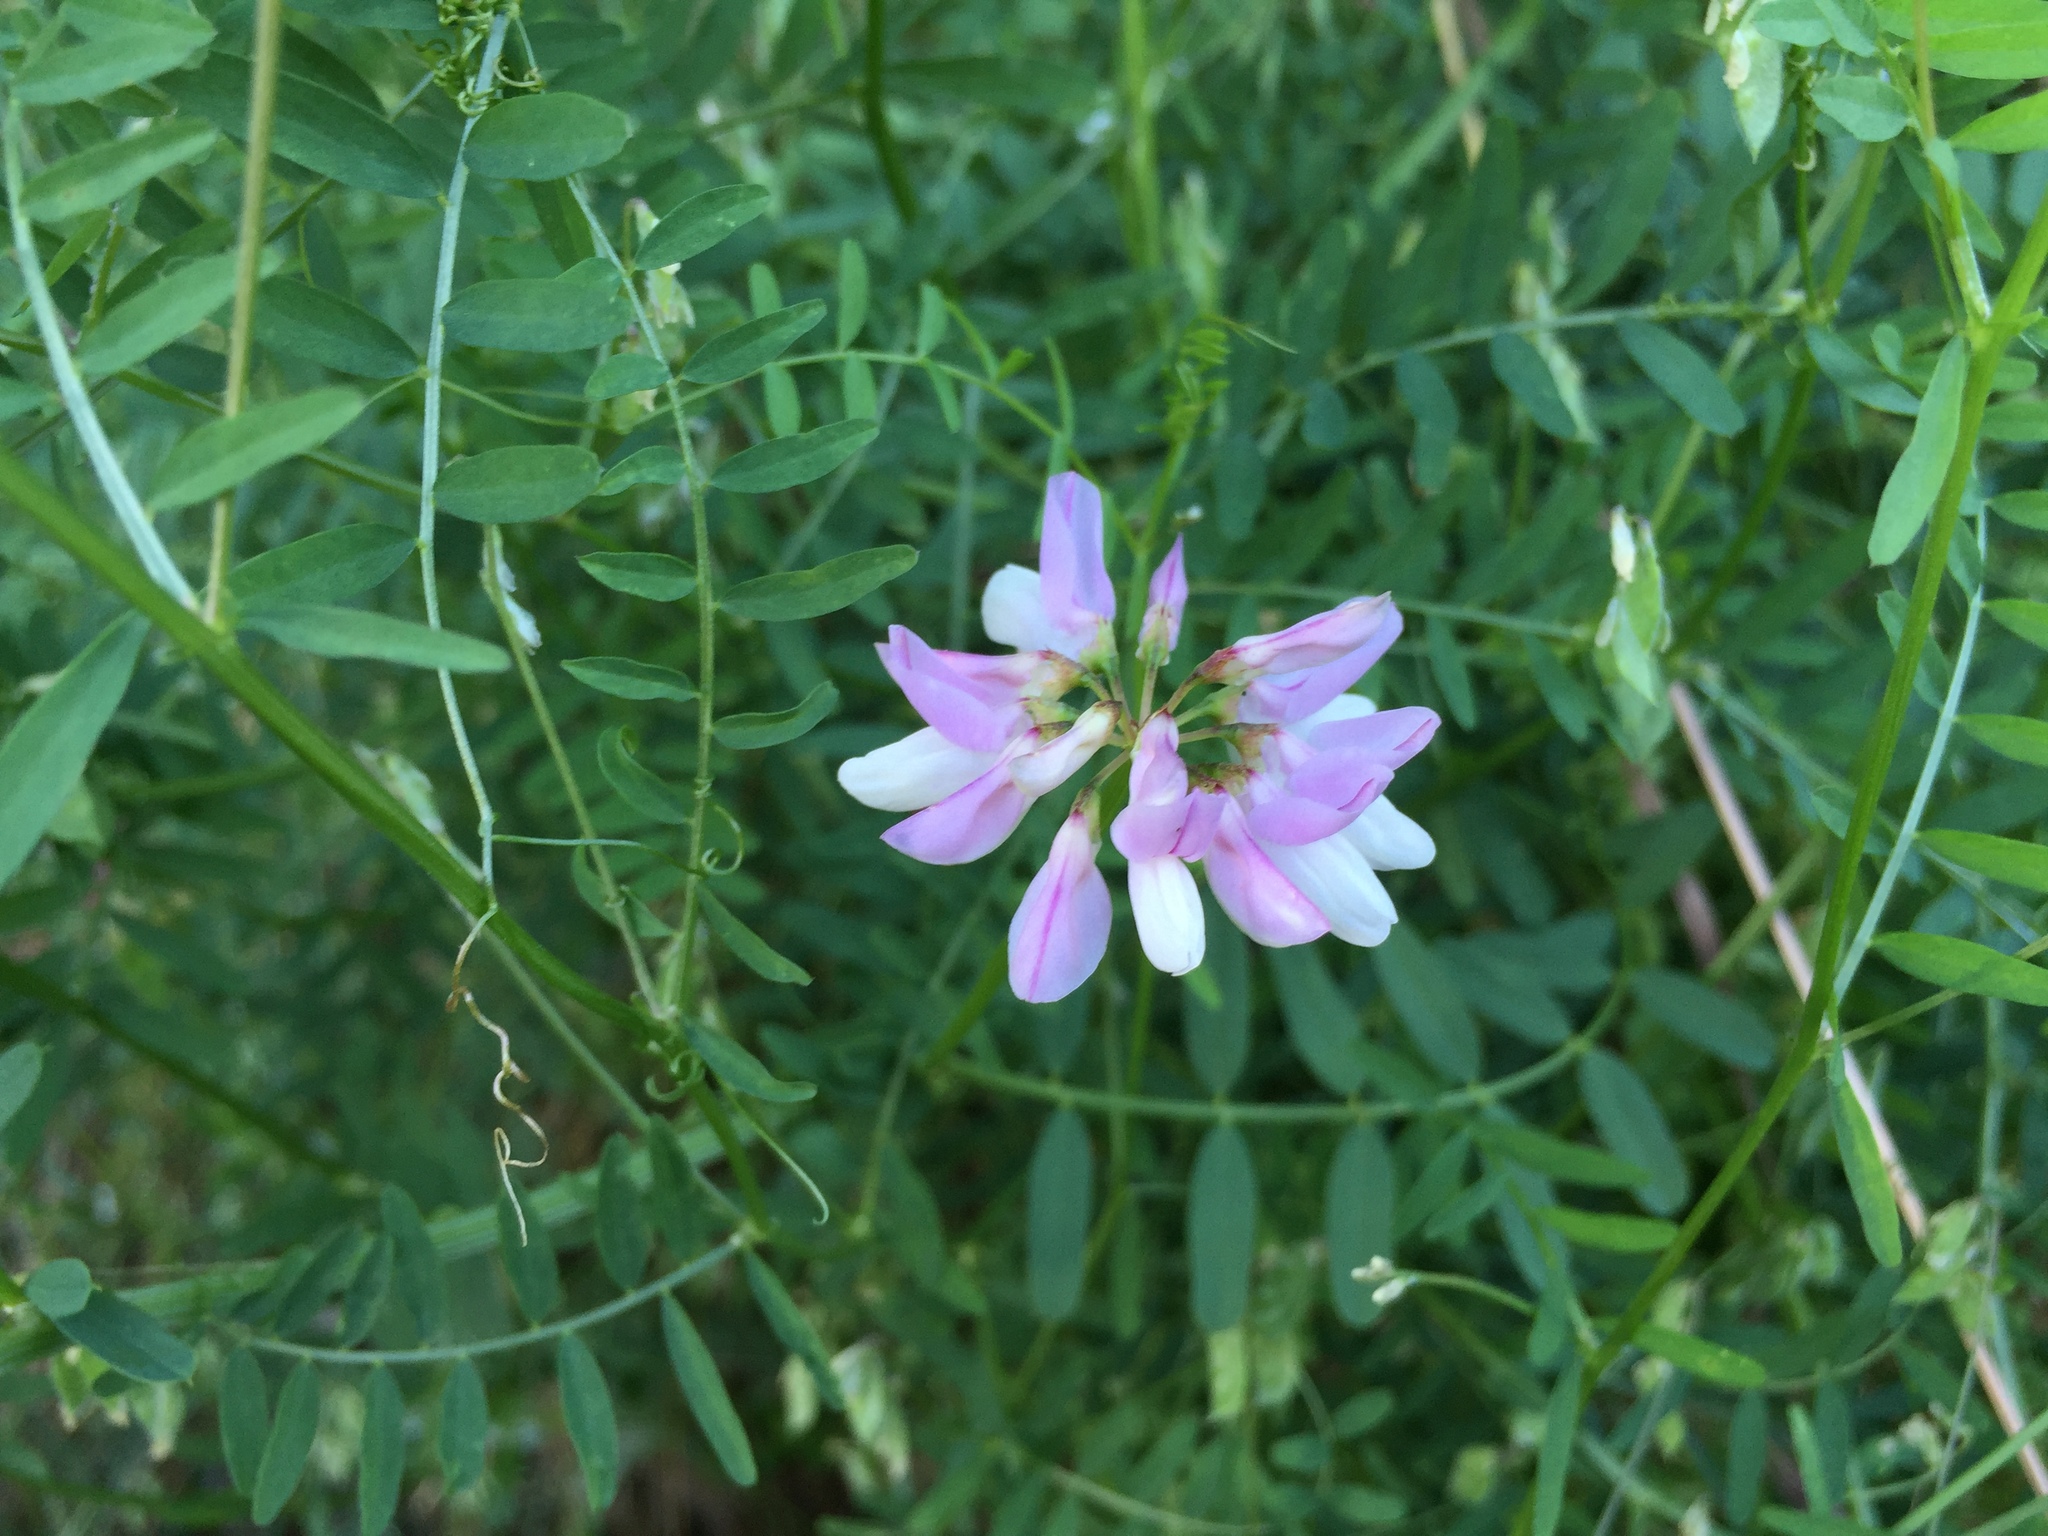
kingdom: Plantae
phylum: Tracheophyta
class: Magnoliopsida
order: Fabales
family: Fabaceae
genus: Coronilla
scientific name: Coronilla varia
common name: Crownvetch
